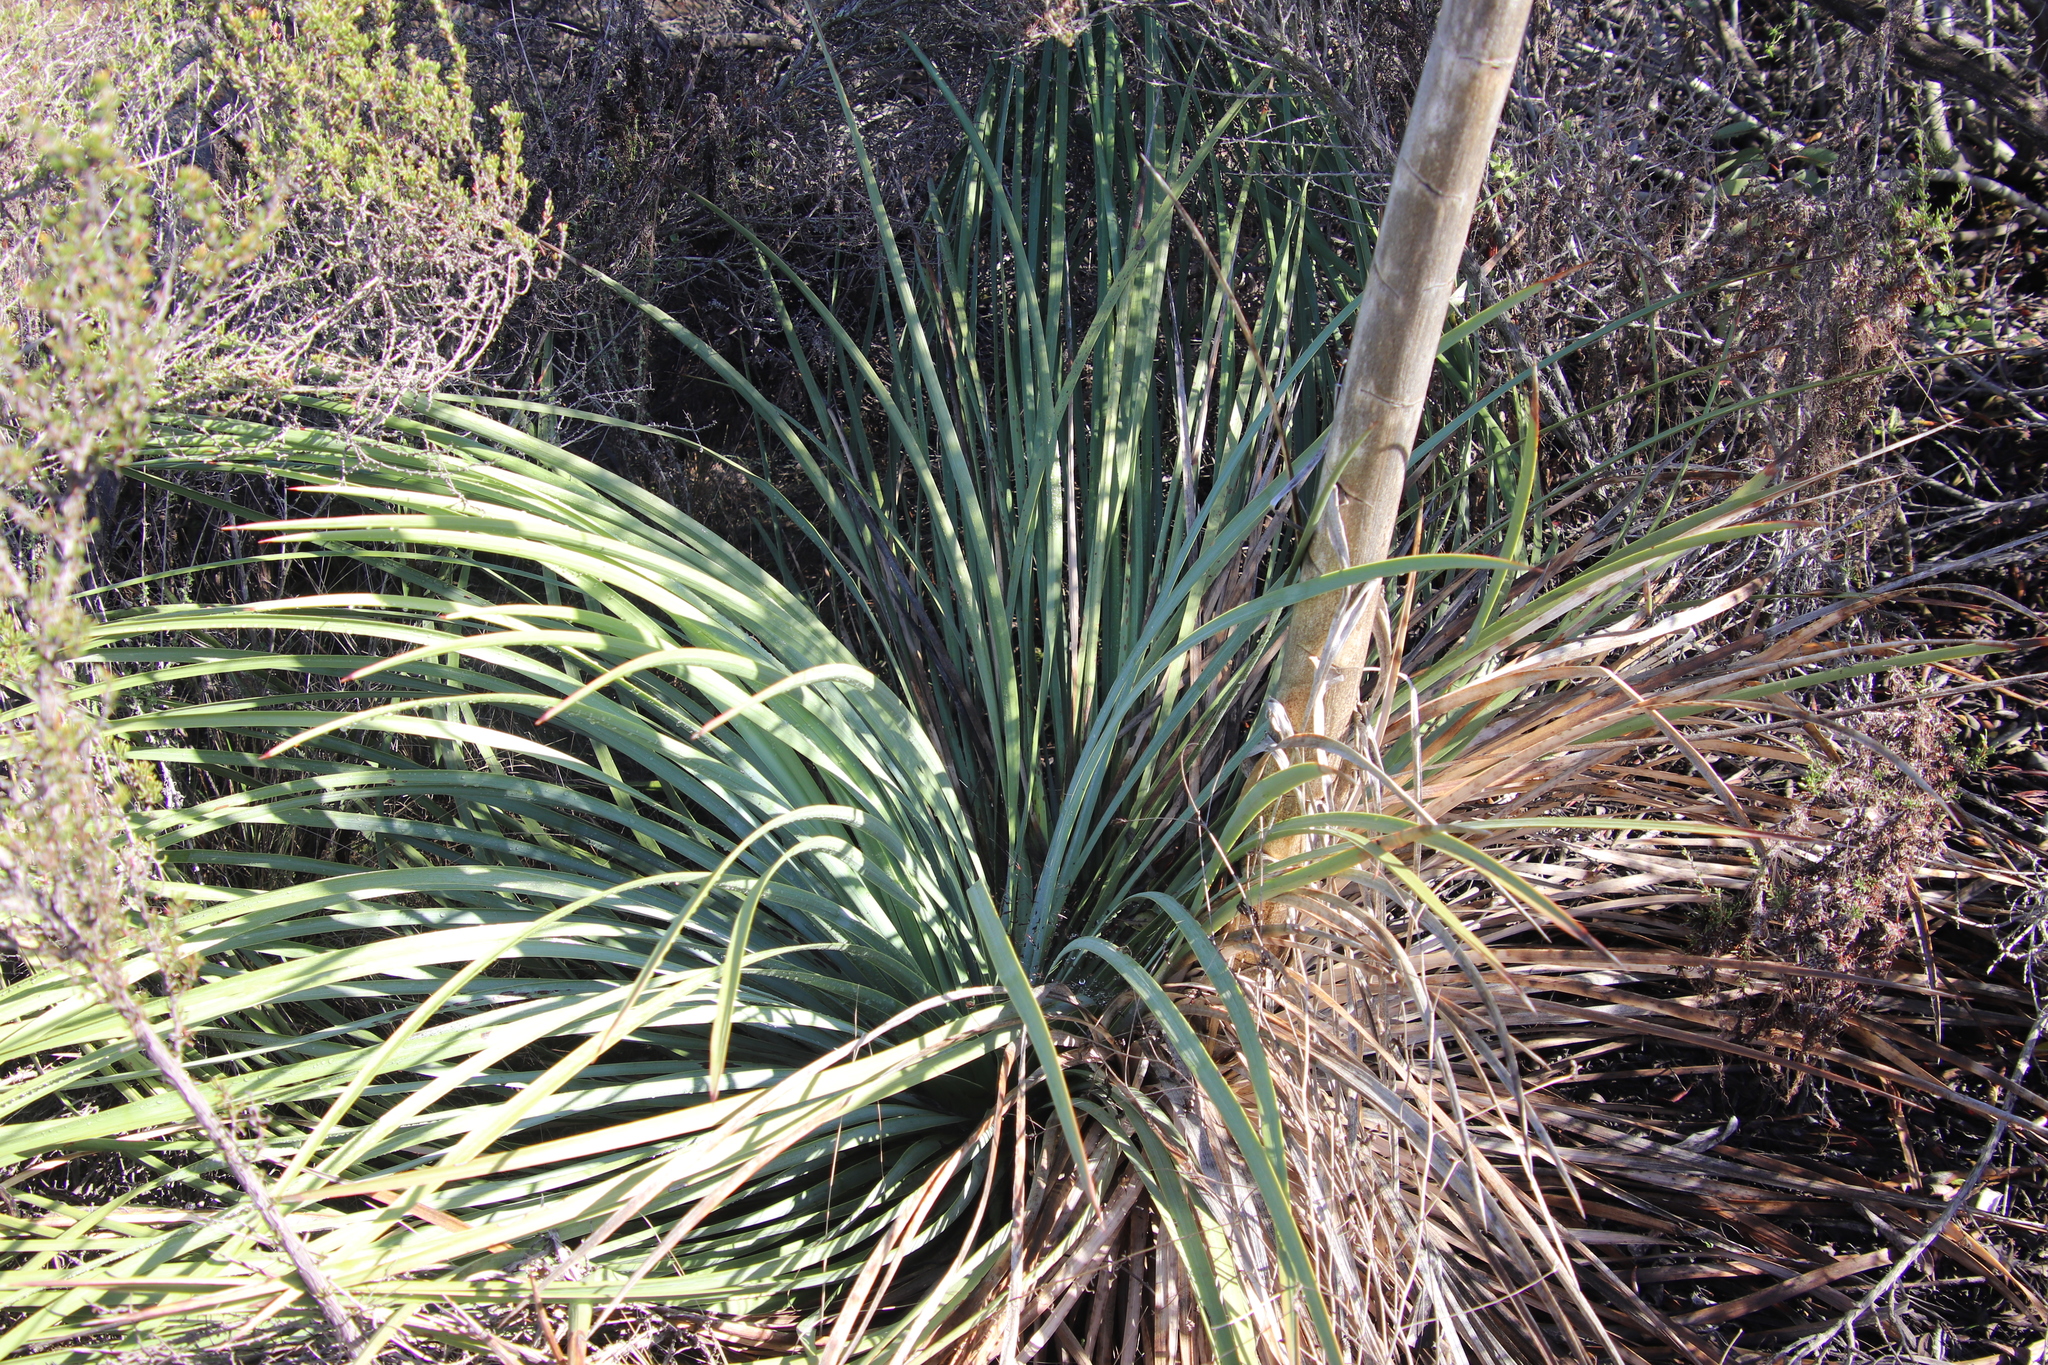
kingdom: Plantae
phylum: Tracheophyta
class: Liliopsida
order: Asparagales
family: Asparagaceae
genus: Hesperoyucca
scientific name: Hesperoyucca whipplei
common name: Our lord's-candle
